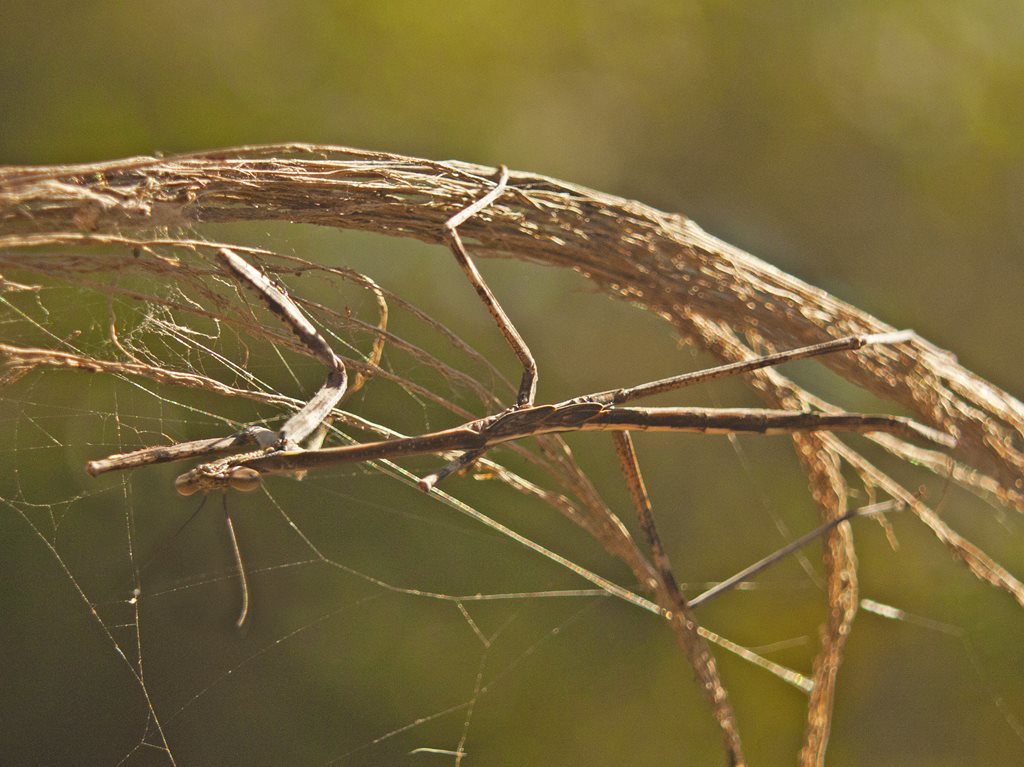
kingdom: Animalia
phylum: Arthropoda
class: Insecta
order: Mantodea
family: Mantidae
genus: Archimantis
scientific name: Archimantis latistyla
